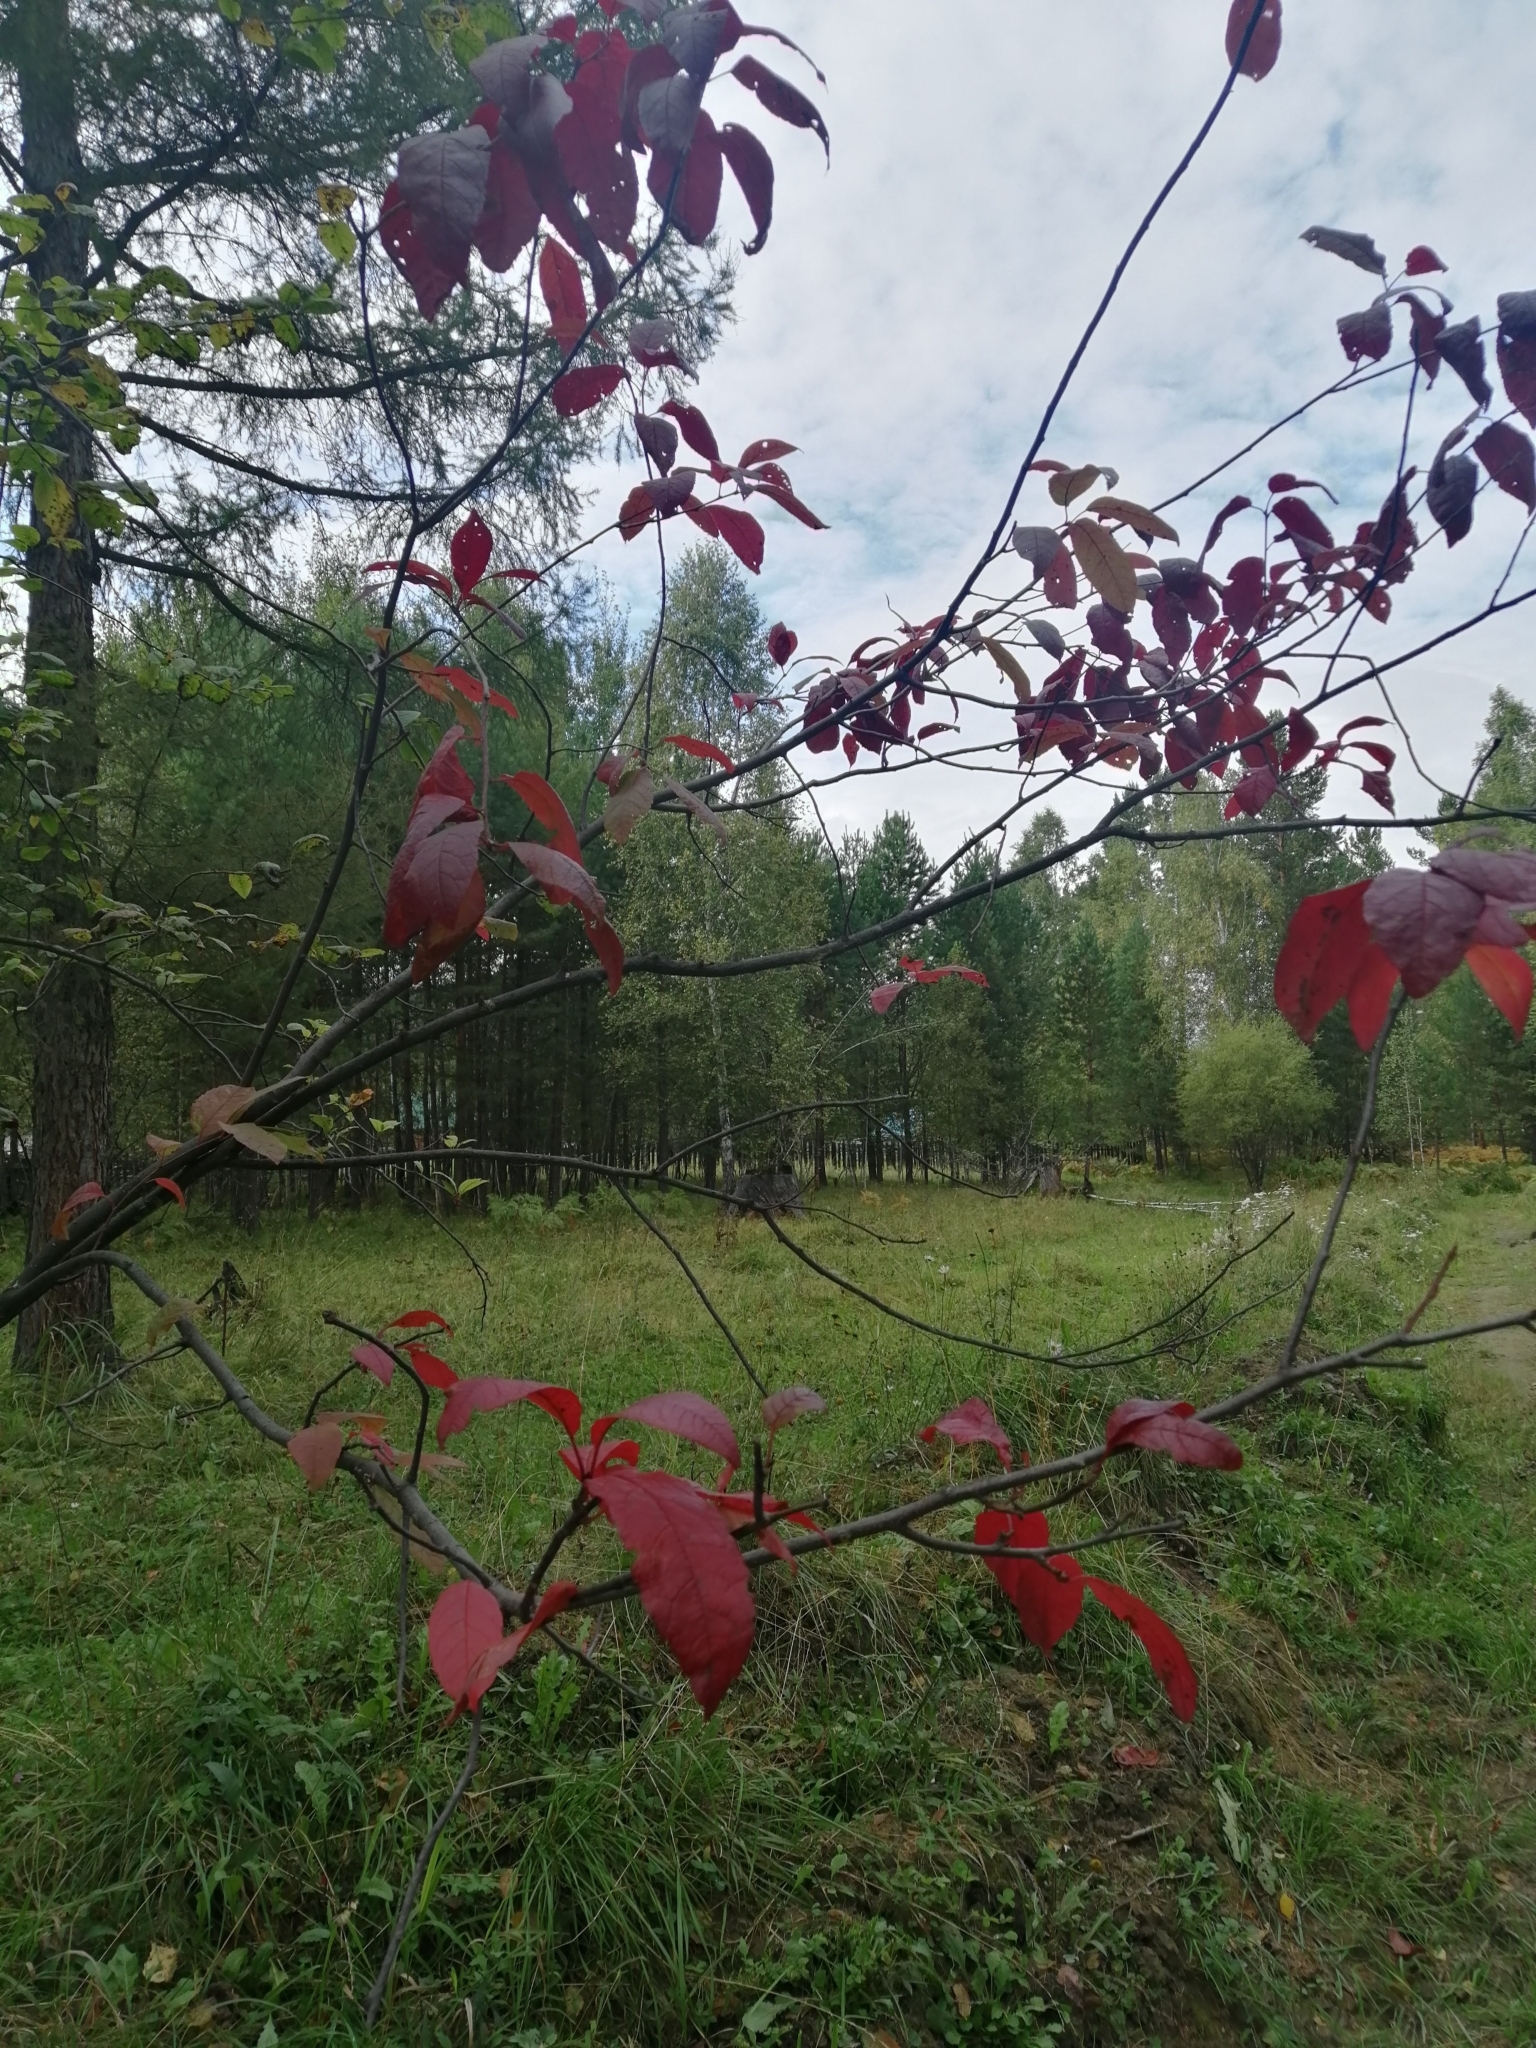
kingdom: Plantae
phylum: Tracheophyta
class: Magnoliopsida
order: Rosales
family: Rosaceae
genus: Prunus
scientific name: Prunus padus
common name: Bird cherry
